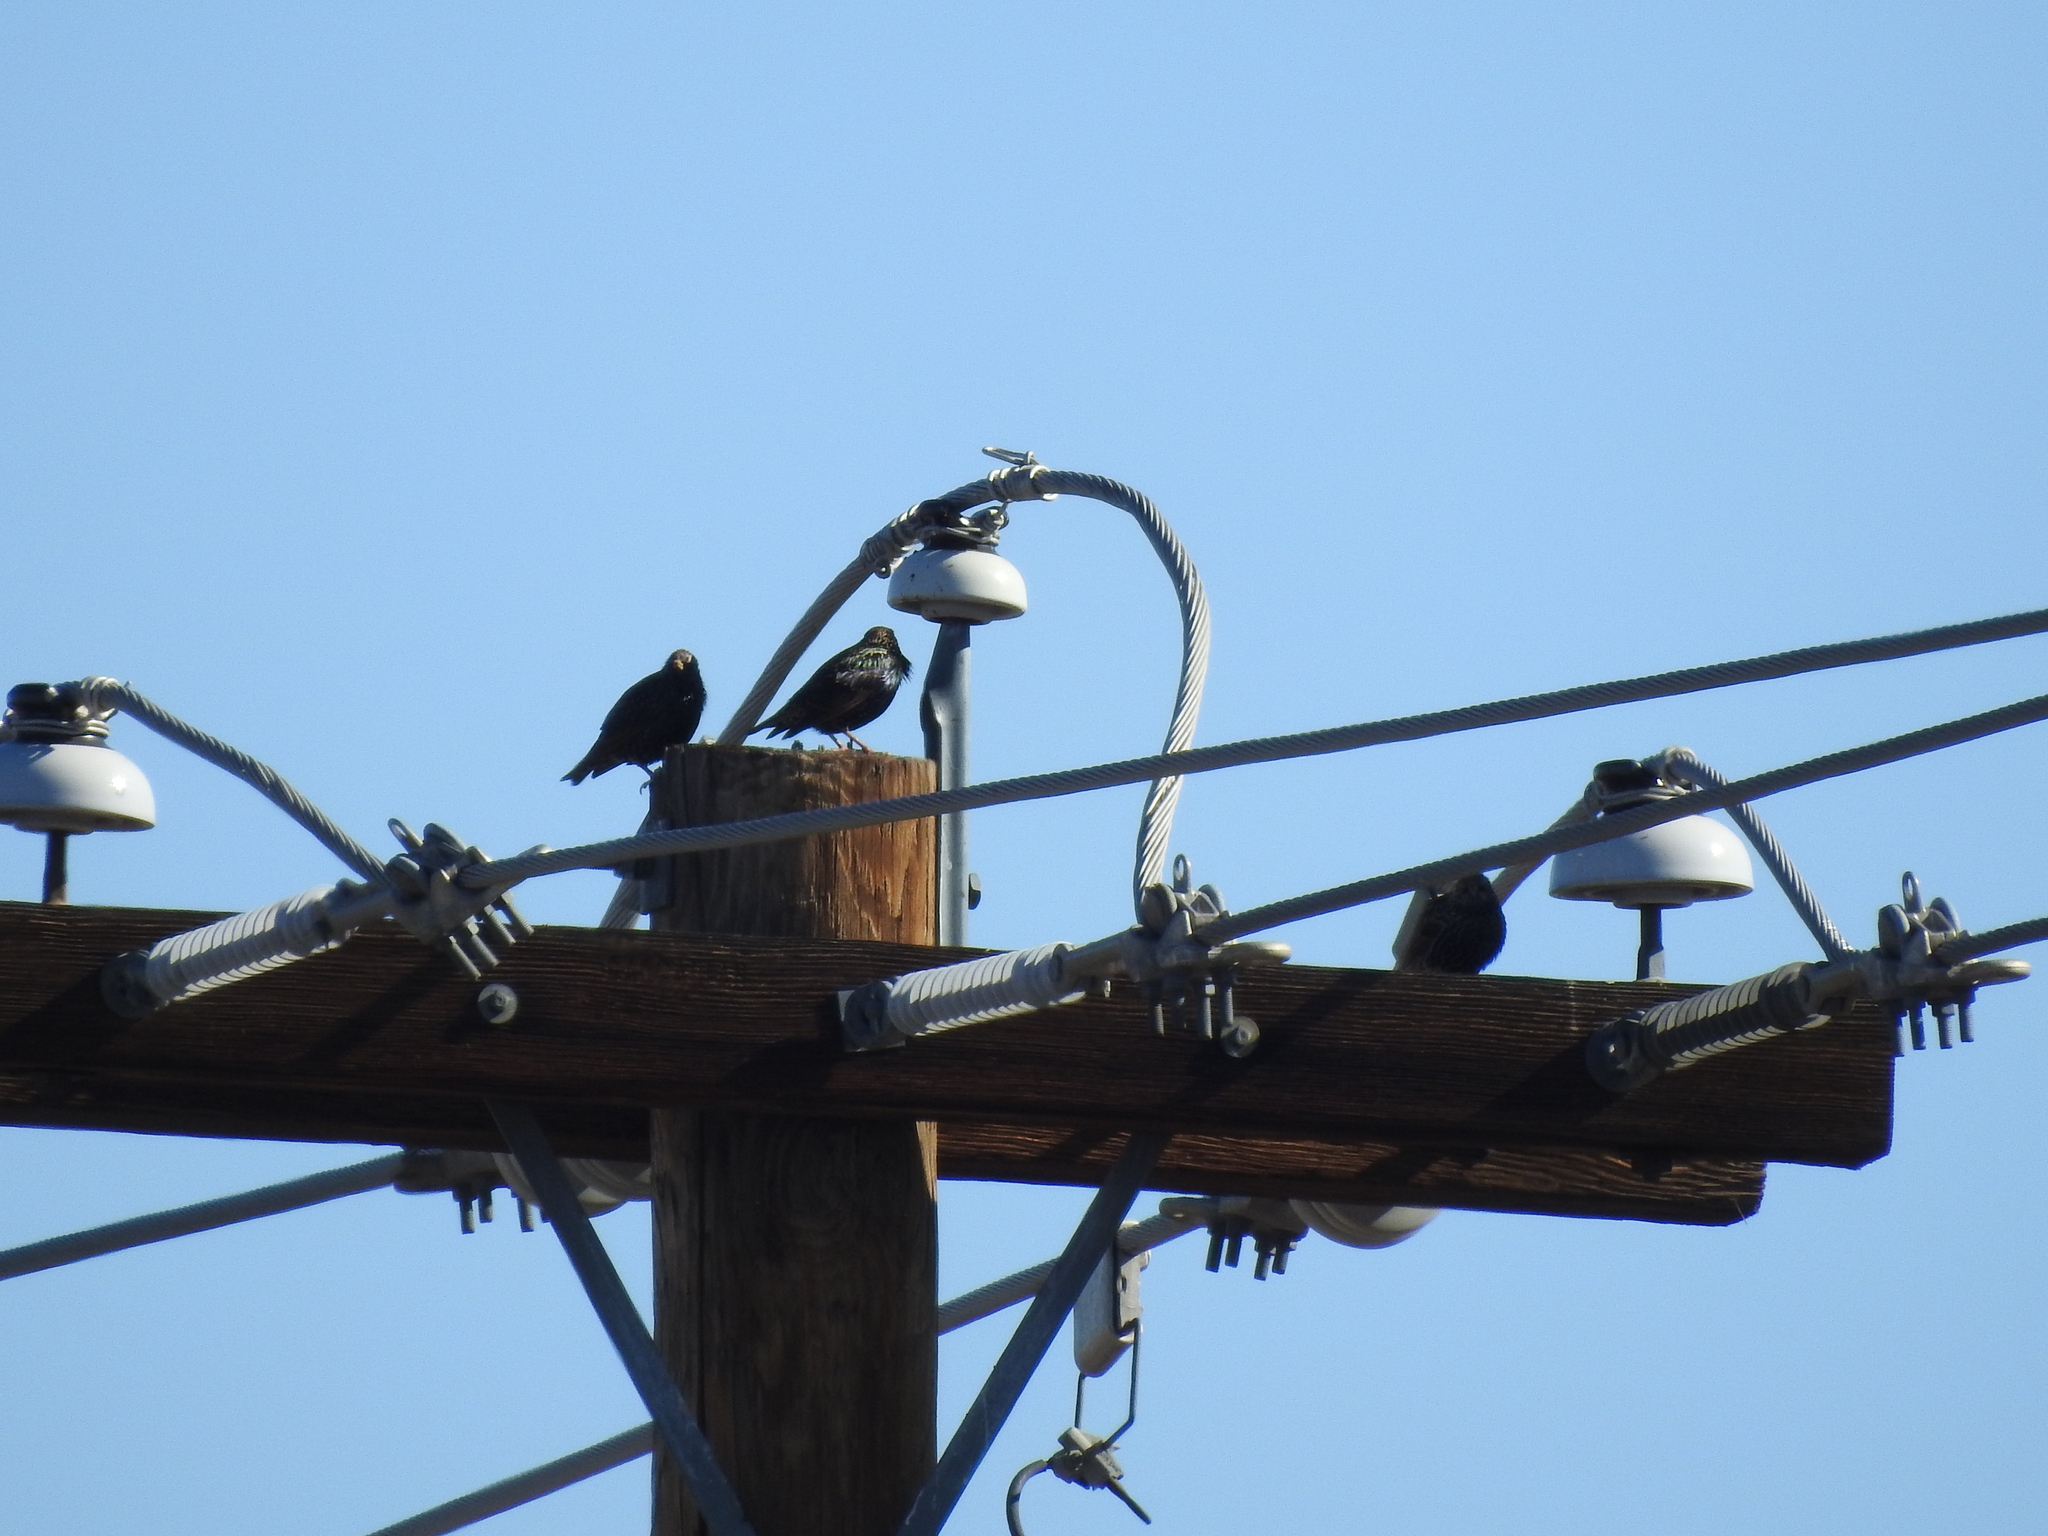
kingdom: Animalia
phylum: Chordata
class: Aves
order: Passeriformes
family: Sturnidae
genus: Sturnus
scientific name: Sturnus vulgaris
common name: Common starling
